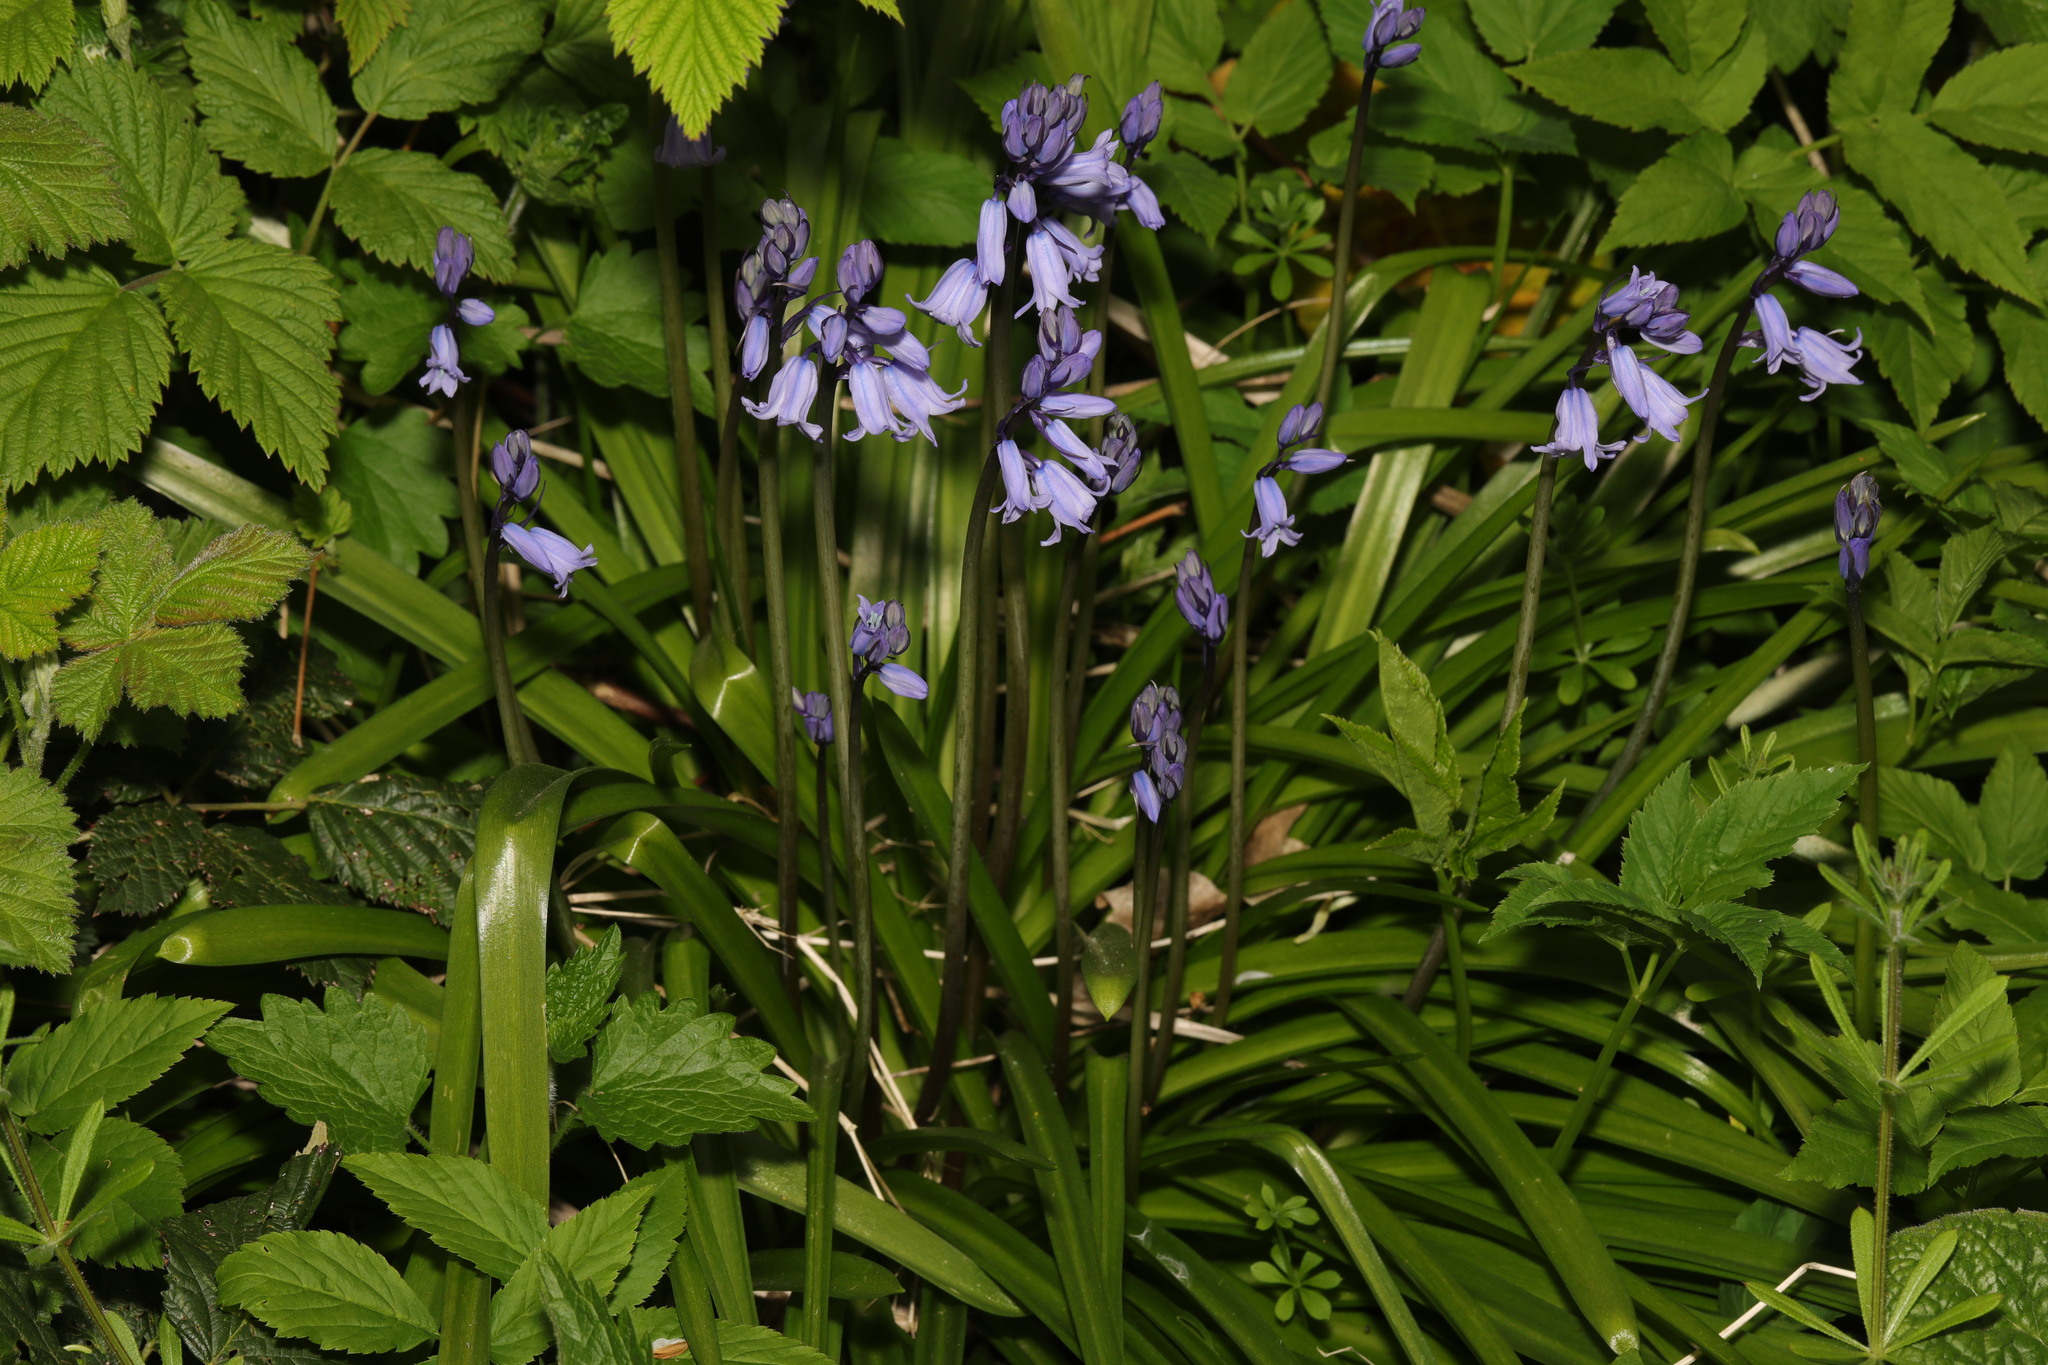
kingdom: Plantae
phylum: Tracheophyta
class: Liliopsida
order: Asparagales
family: Asparagaceae
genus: Hyacinthoides
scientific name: Hyacinthoides massartiana
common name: Hyacinthoides
